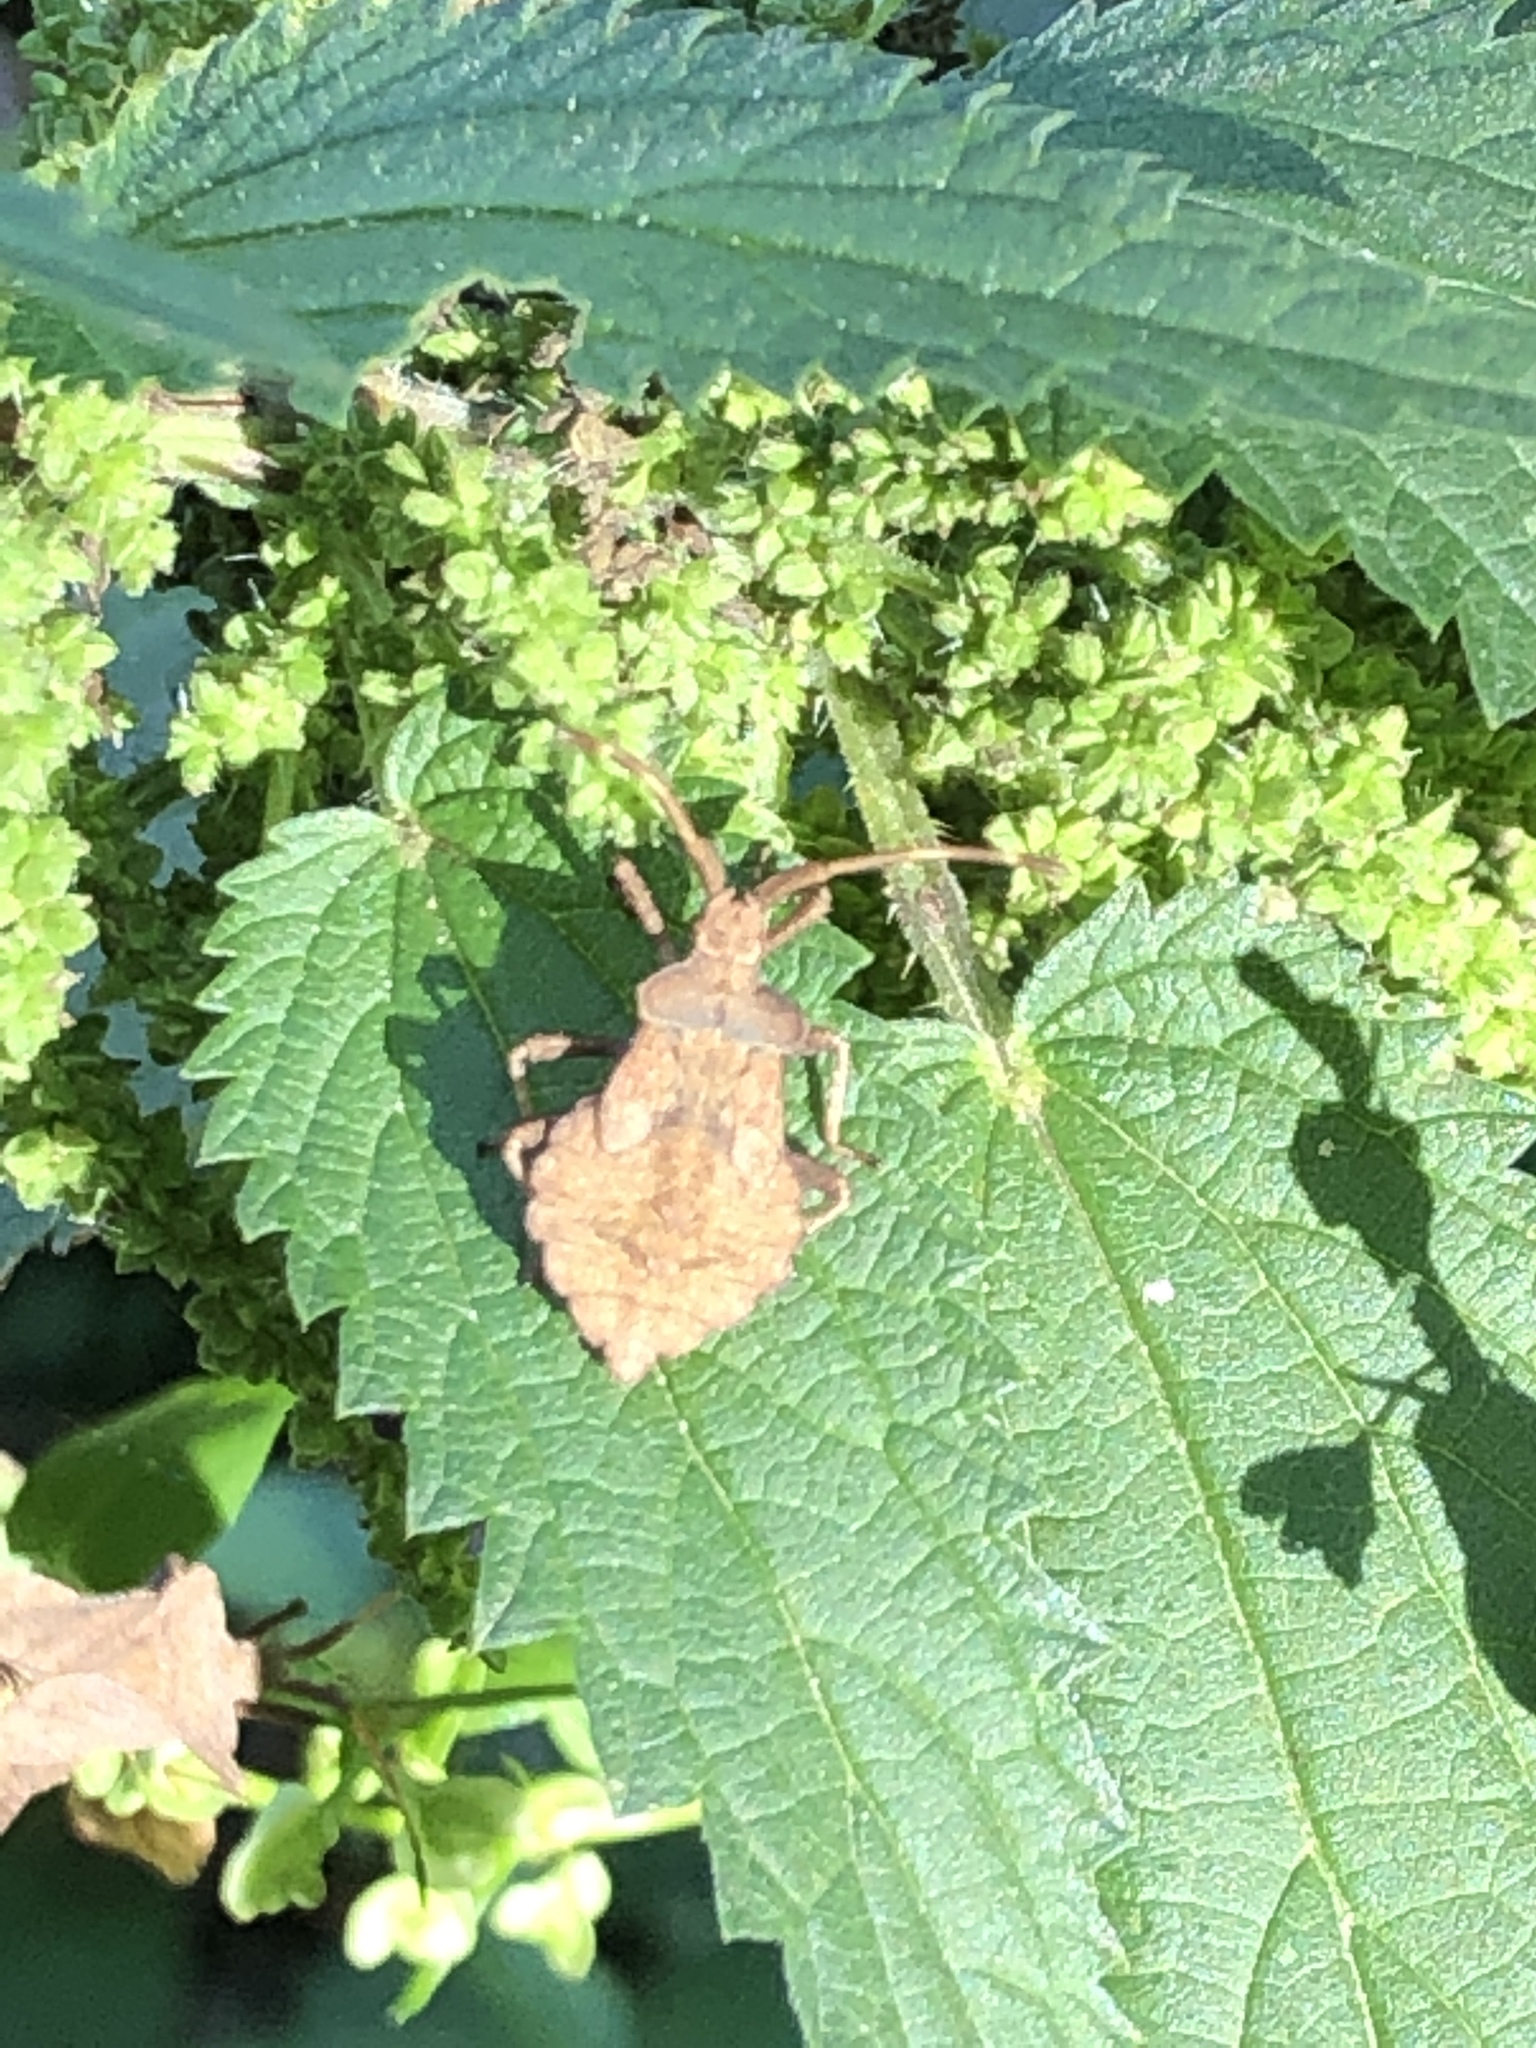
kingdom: Animalia
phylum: Arthropoda
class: Insecta
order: Hemiptera
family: Coreidae
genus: Coreus
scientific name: Coreus marginatus
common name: Dock bug
